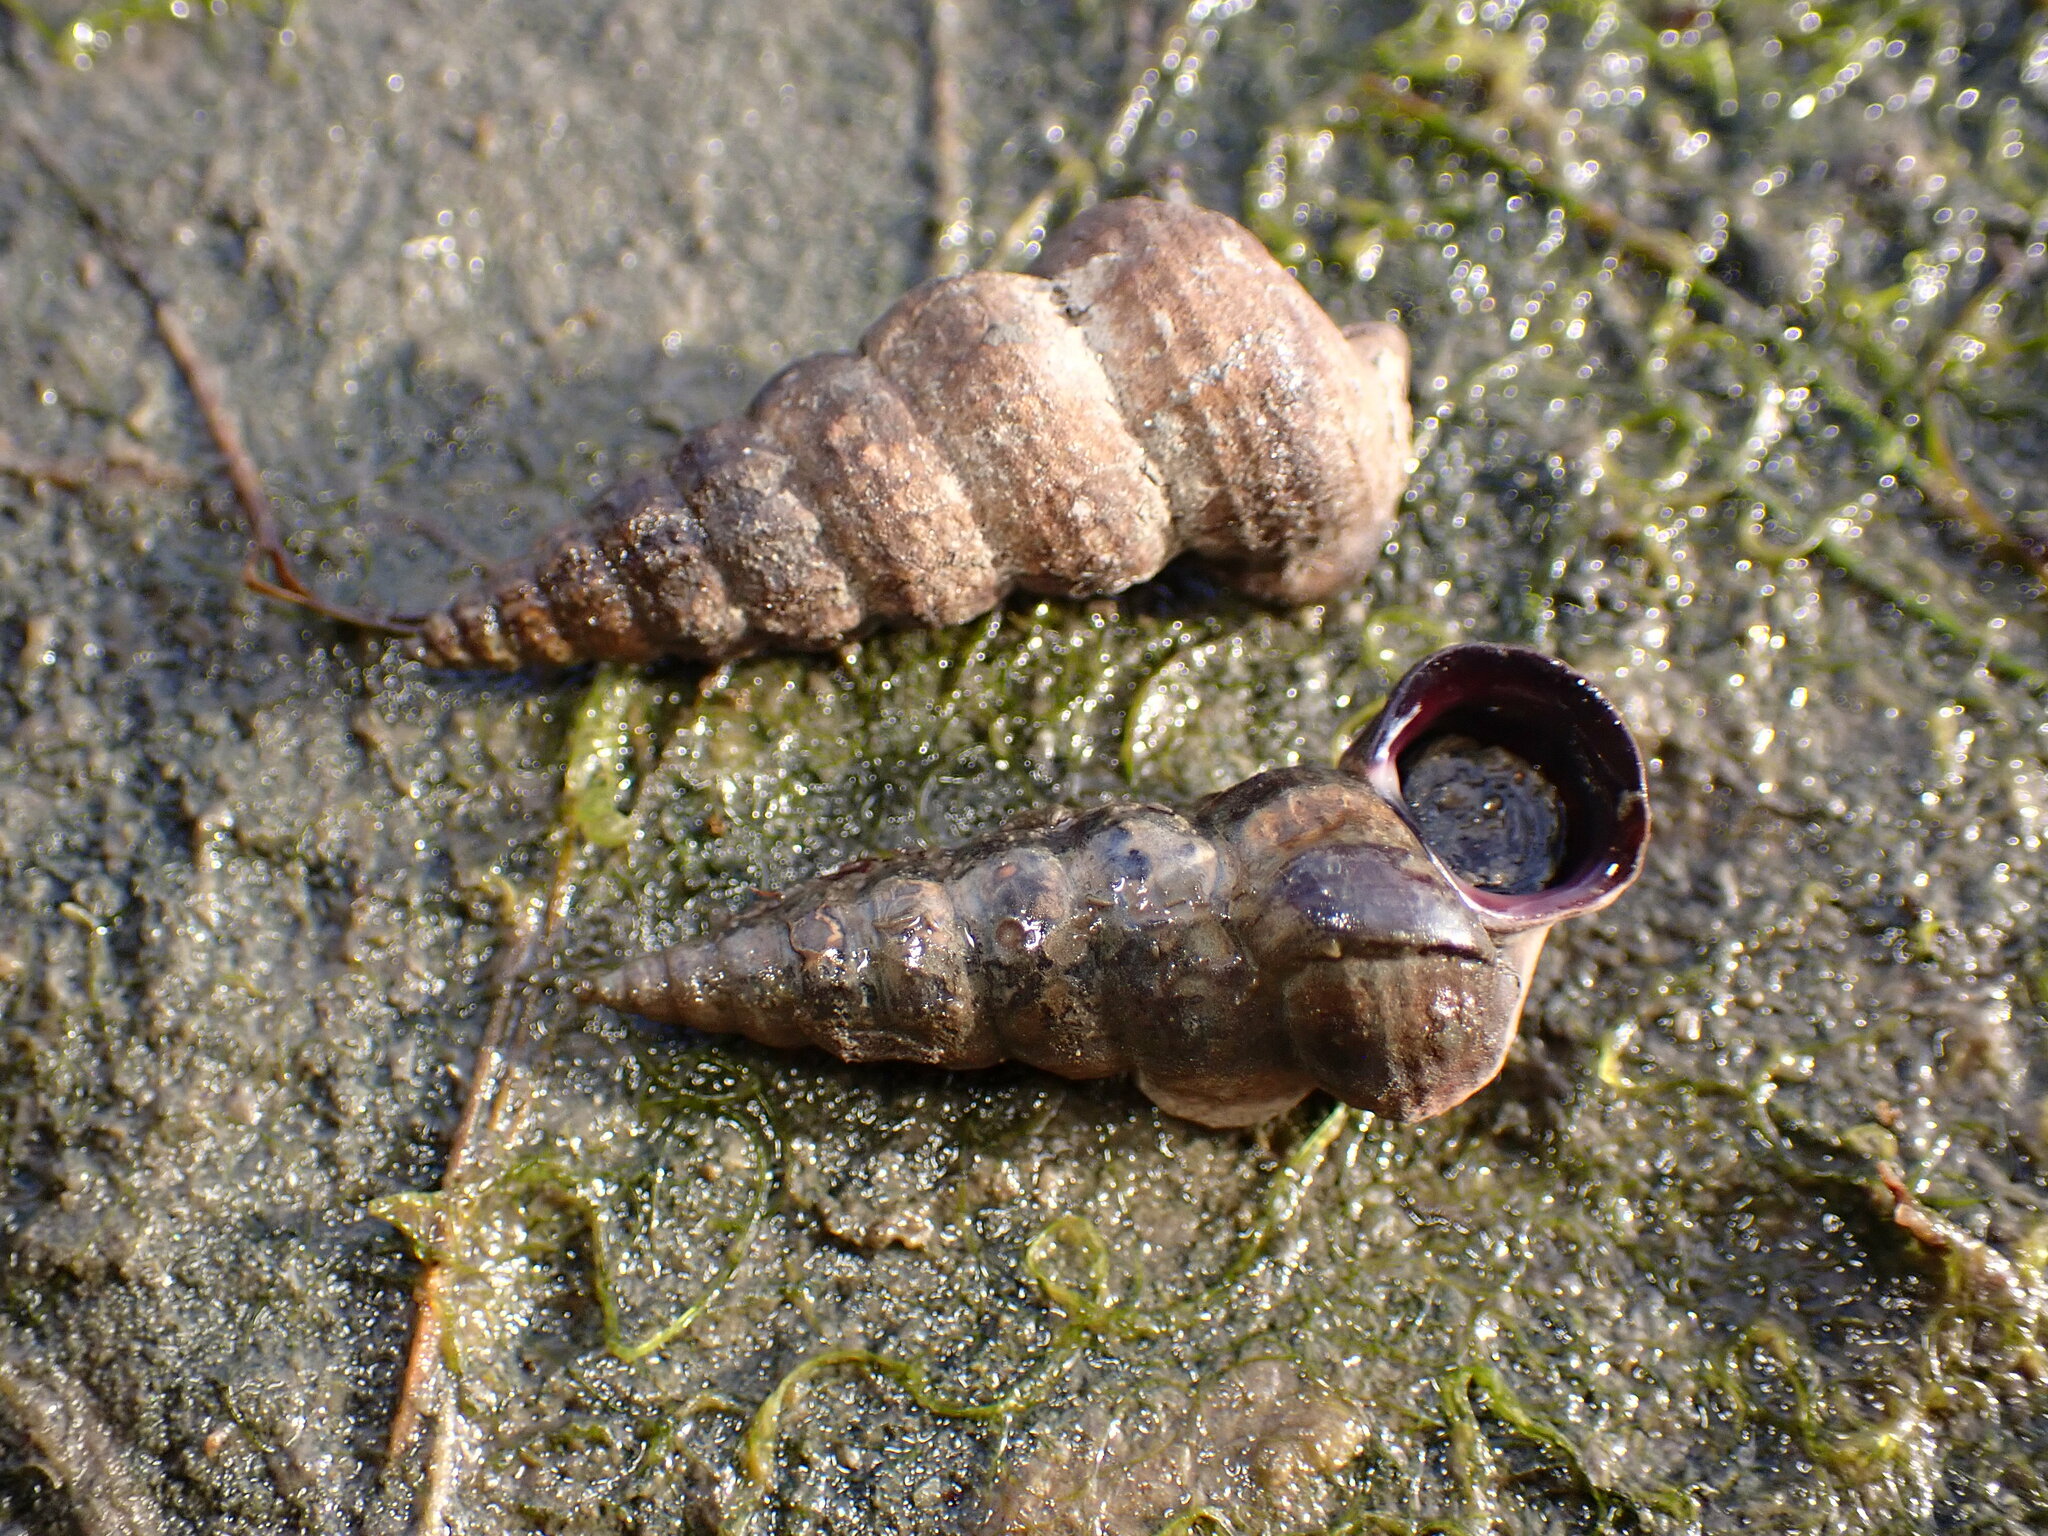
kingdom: Animalia
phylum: Mollusca
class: Gastropoda
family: Potamididae
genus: Cerithideopsis
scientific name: Cerithideopsis californica
